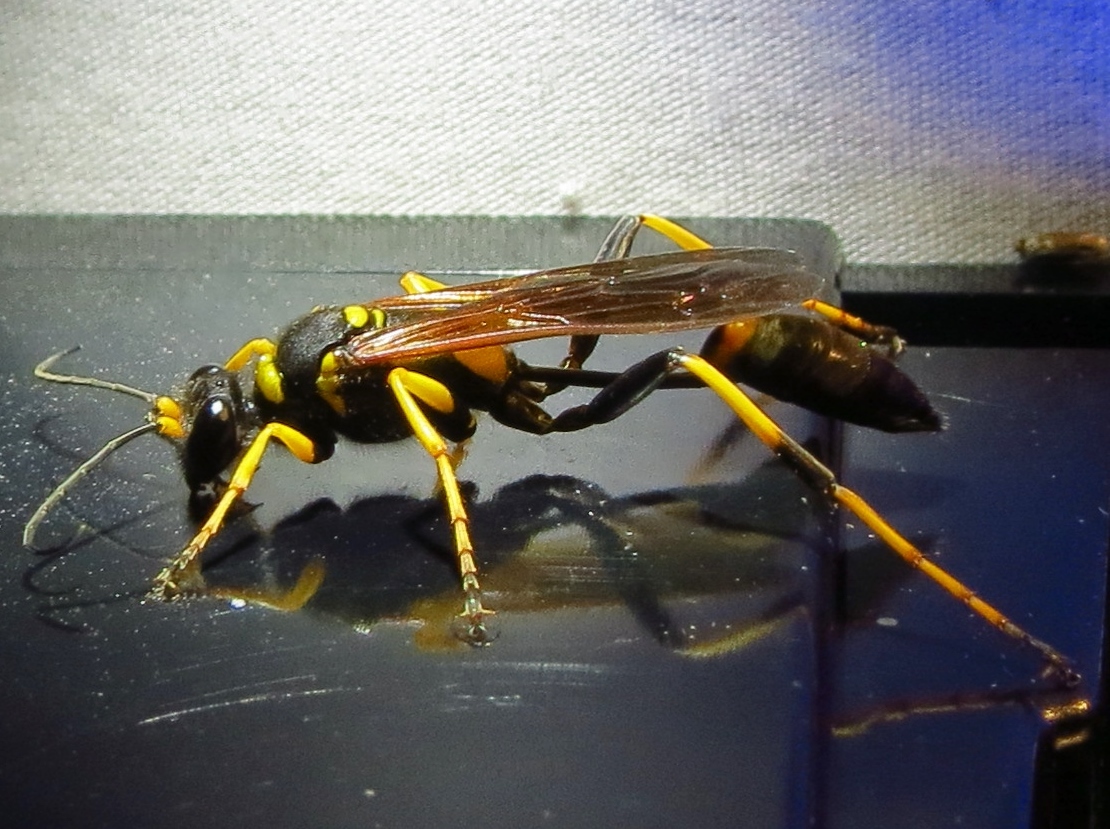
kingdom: Animalia
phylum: Arthropoda
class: Insecta
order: Hymenoptera
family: Sphecidae
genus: Sceliphron
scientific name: Sceliphron caementarium
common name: Mud dauber
